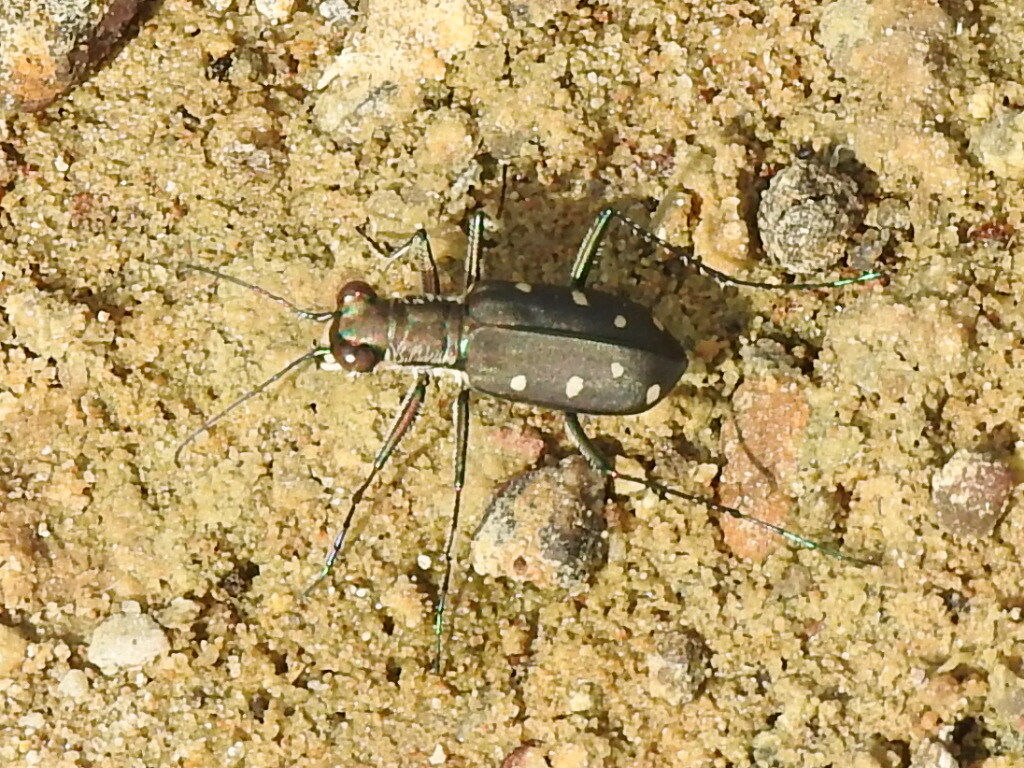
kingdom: Animalia
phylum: Arthropoda
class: Insecta
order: Coleoptera
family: Carabidae
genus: Cicindela
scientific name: Cicindela ocellata
